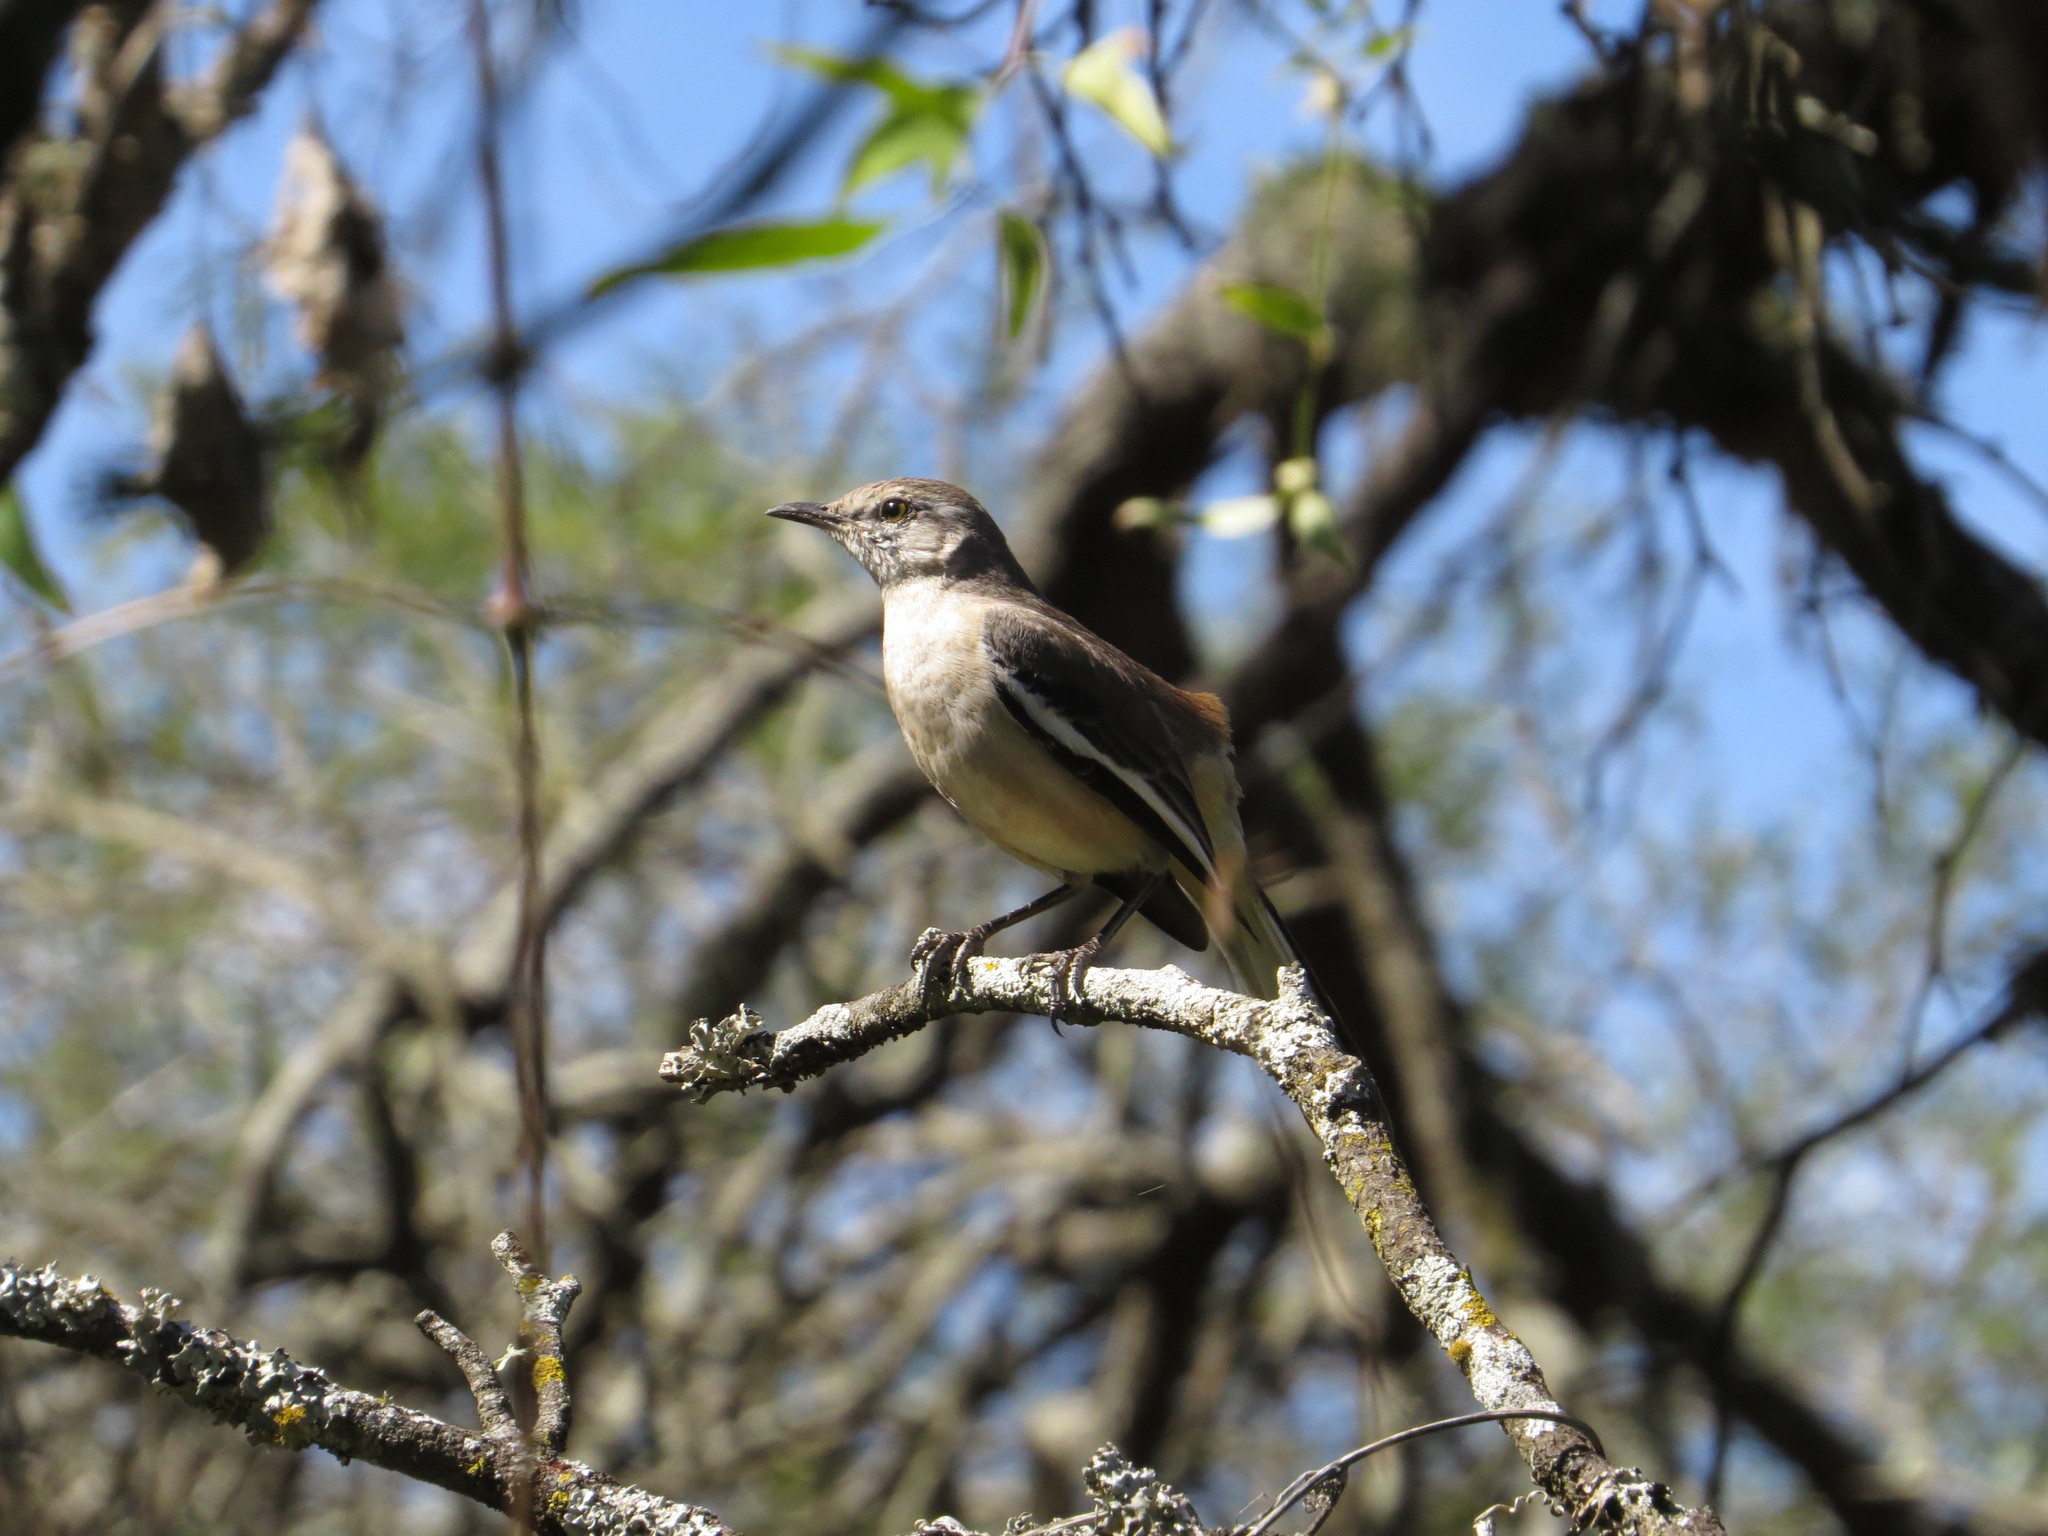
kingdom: Animalia
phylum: Chordata
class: Aves
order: Passeriformes
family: Mimidae
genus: Mimus
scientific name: Mimus triurus
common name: White-banded mockingbird
